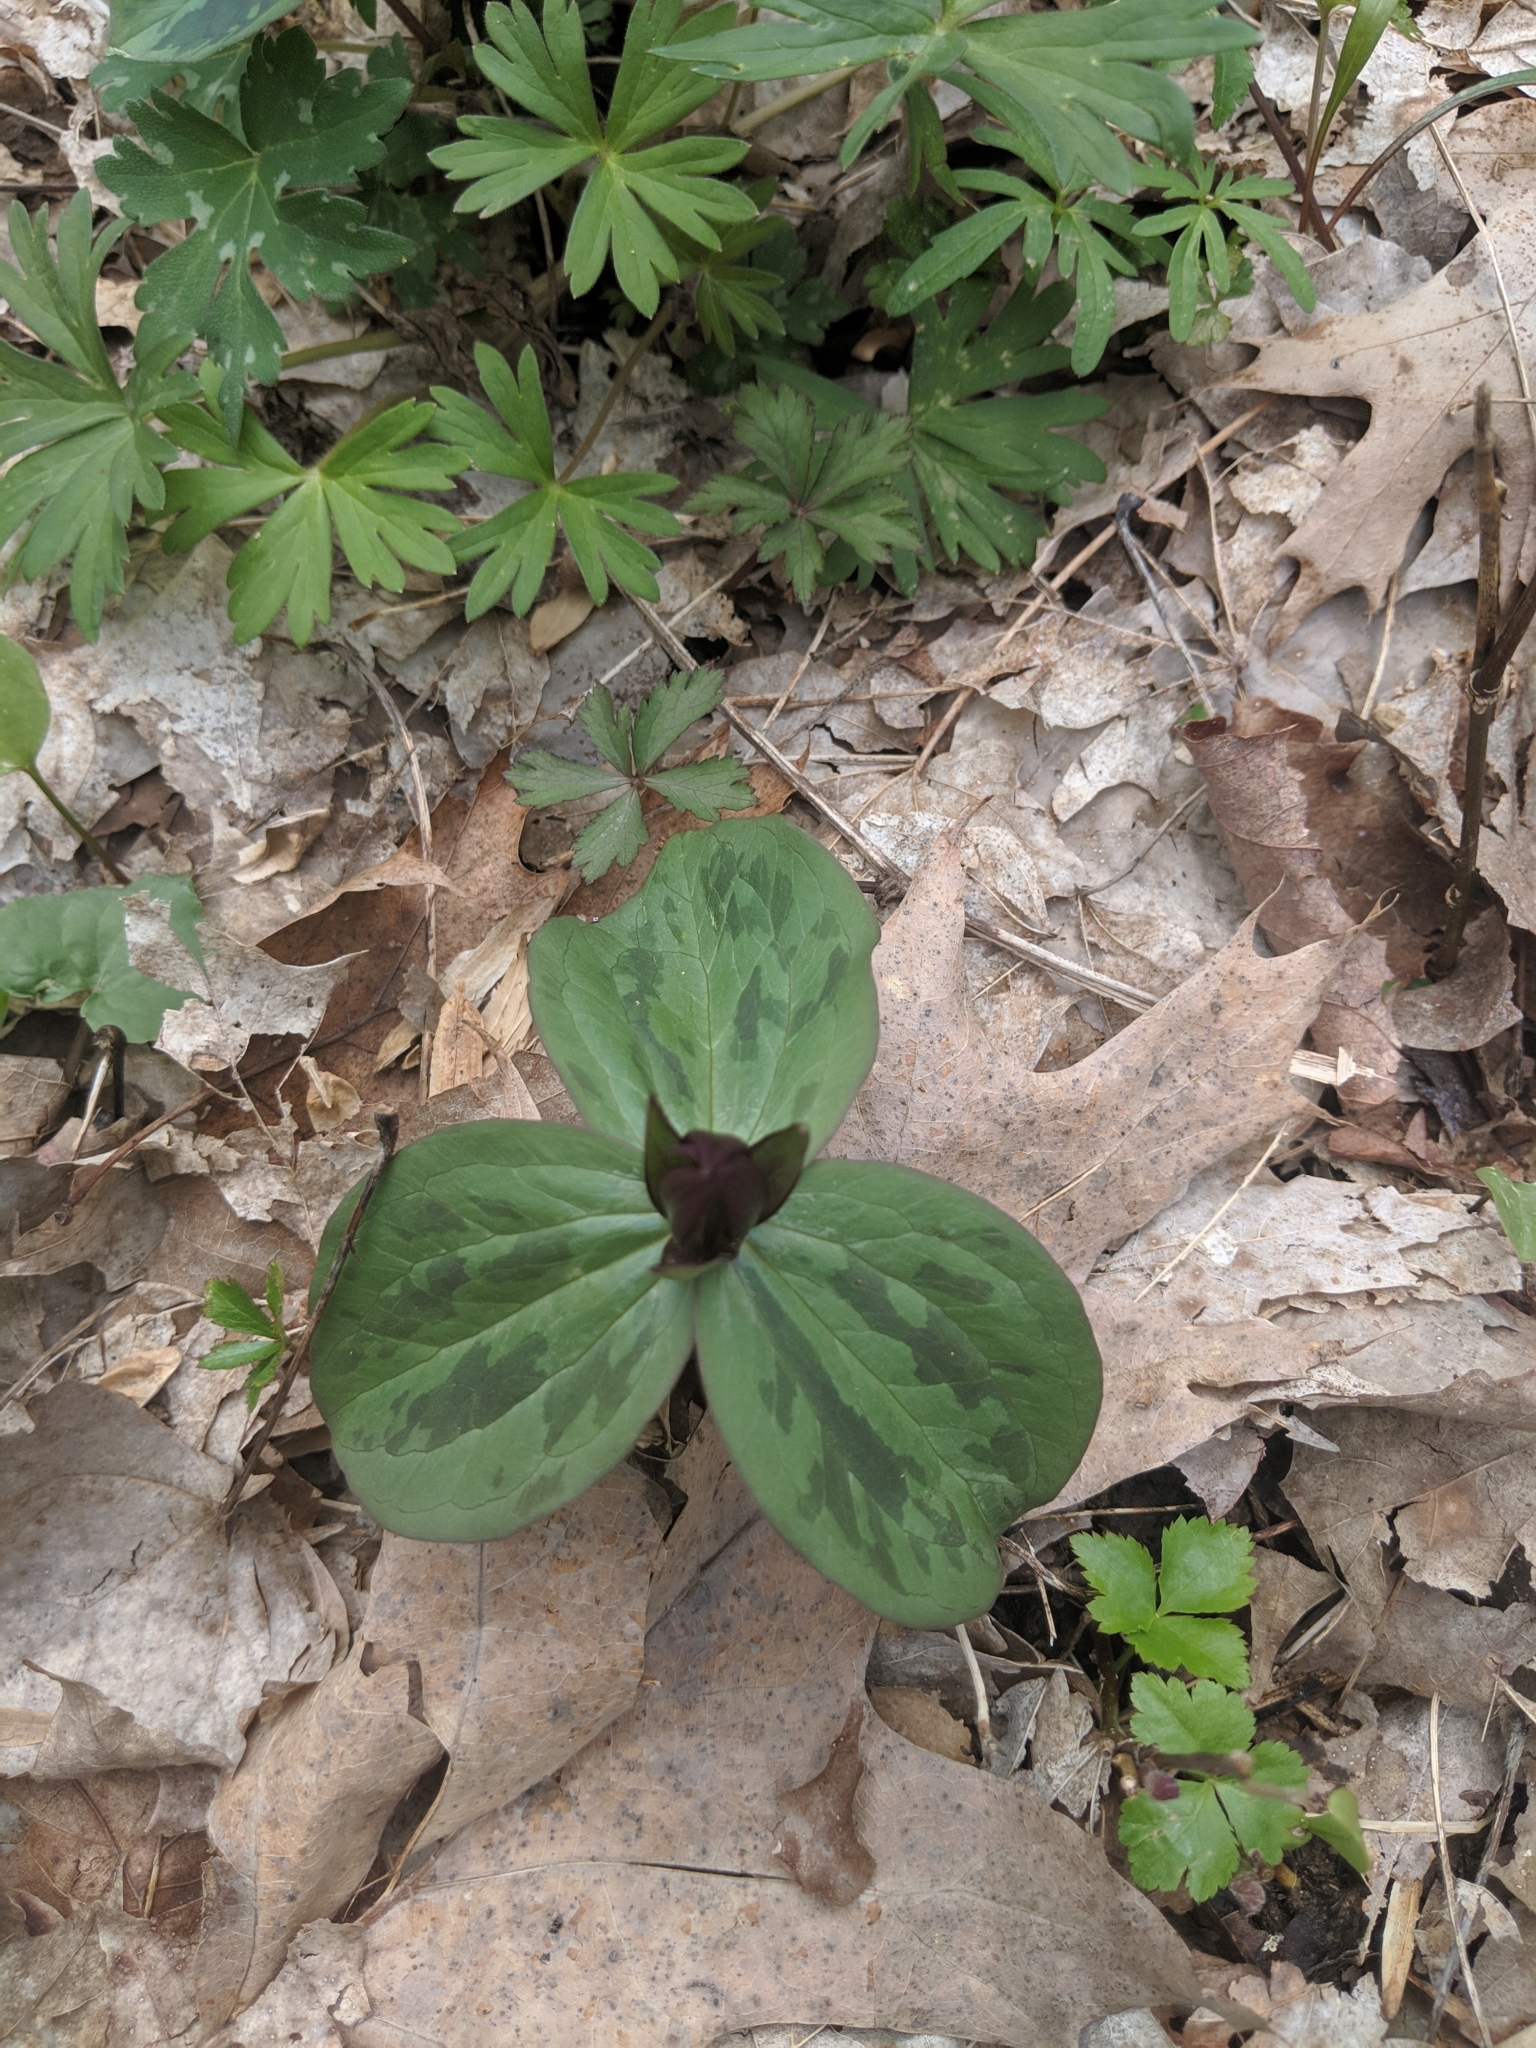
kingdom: Plantae
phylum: Tracheophyta
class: Liliopsida
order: Liliales
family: Melanthiaceae
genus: Trillium
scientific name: Trillium sessile
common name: Sessile trillium
